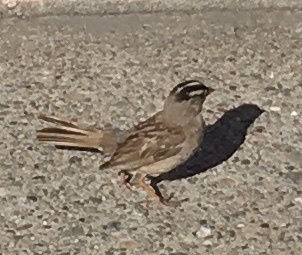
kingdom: Animalia
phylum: Chordata
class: Aves
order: Passeriformes
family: Passerellidae
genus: Zonotrichia
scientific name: Zonotrichia leucophrys
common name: White-crowned sparrow
